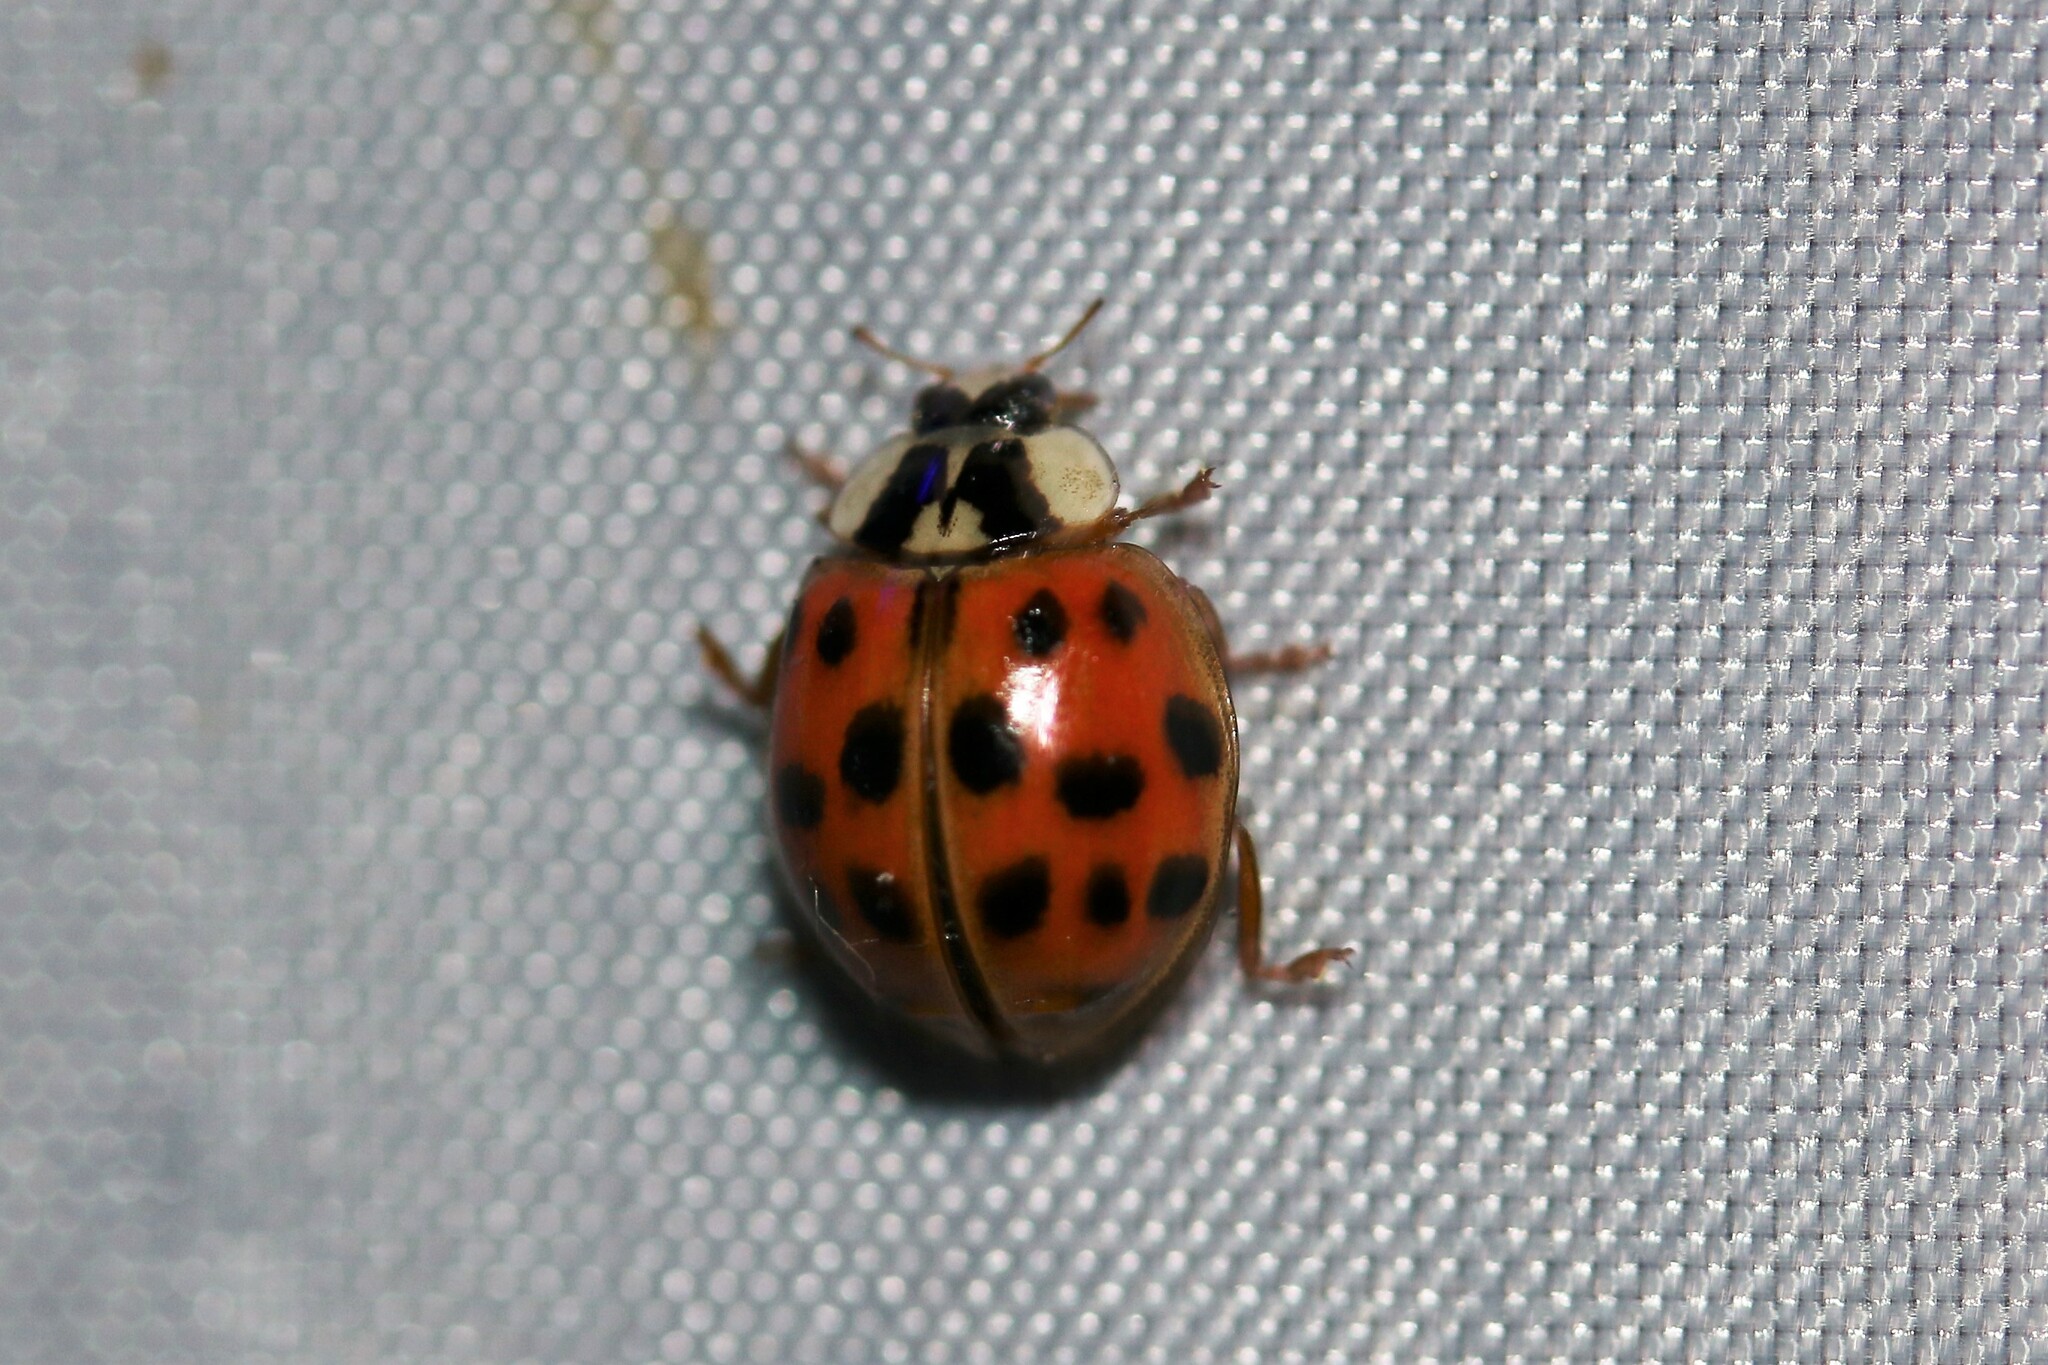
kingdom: Animalia
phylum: Arthropoda
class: Insecta
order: Coleoptera
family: Coccinellidae
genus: Harmonia
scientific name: Harmonia axyridis
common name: Harlequin ladybird
